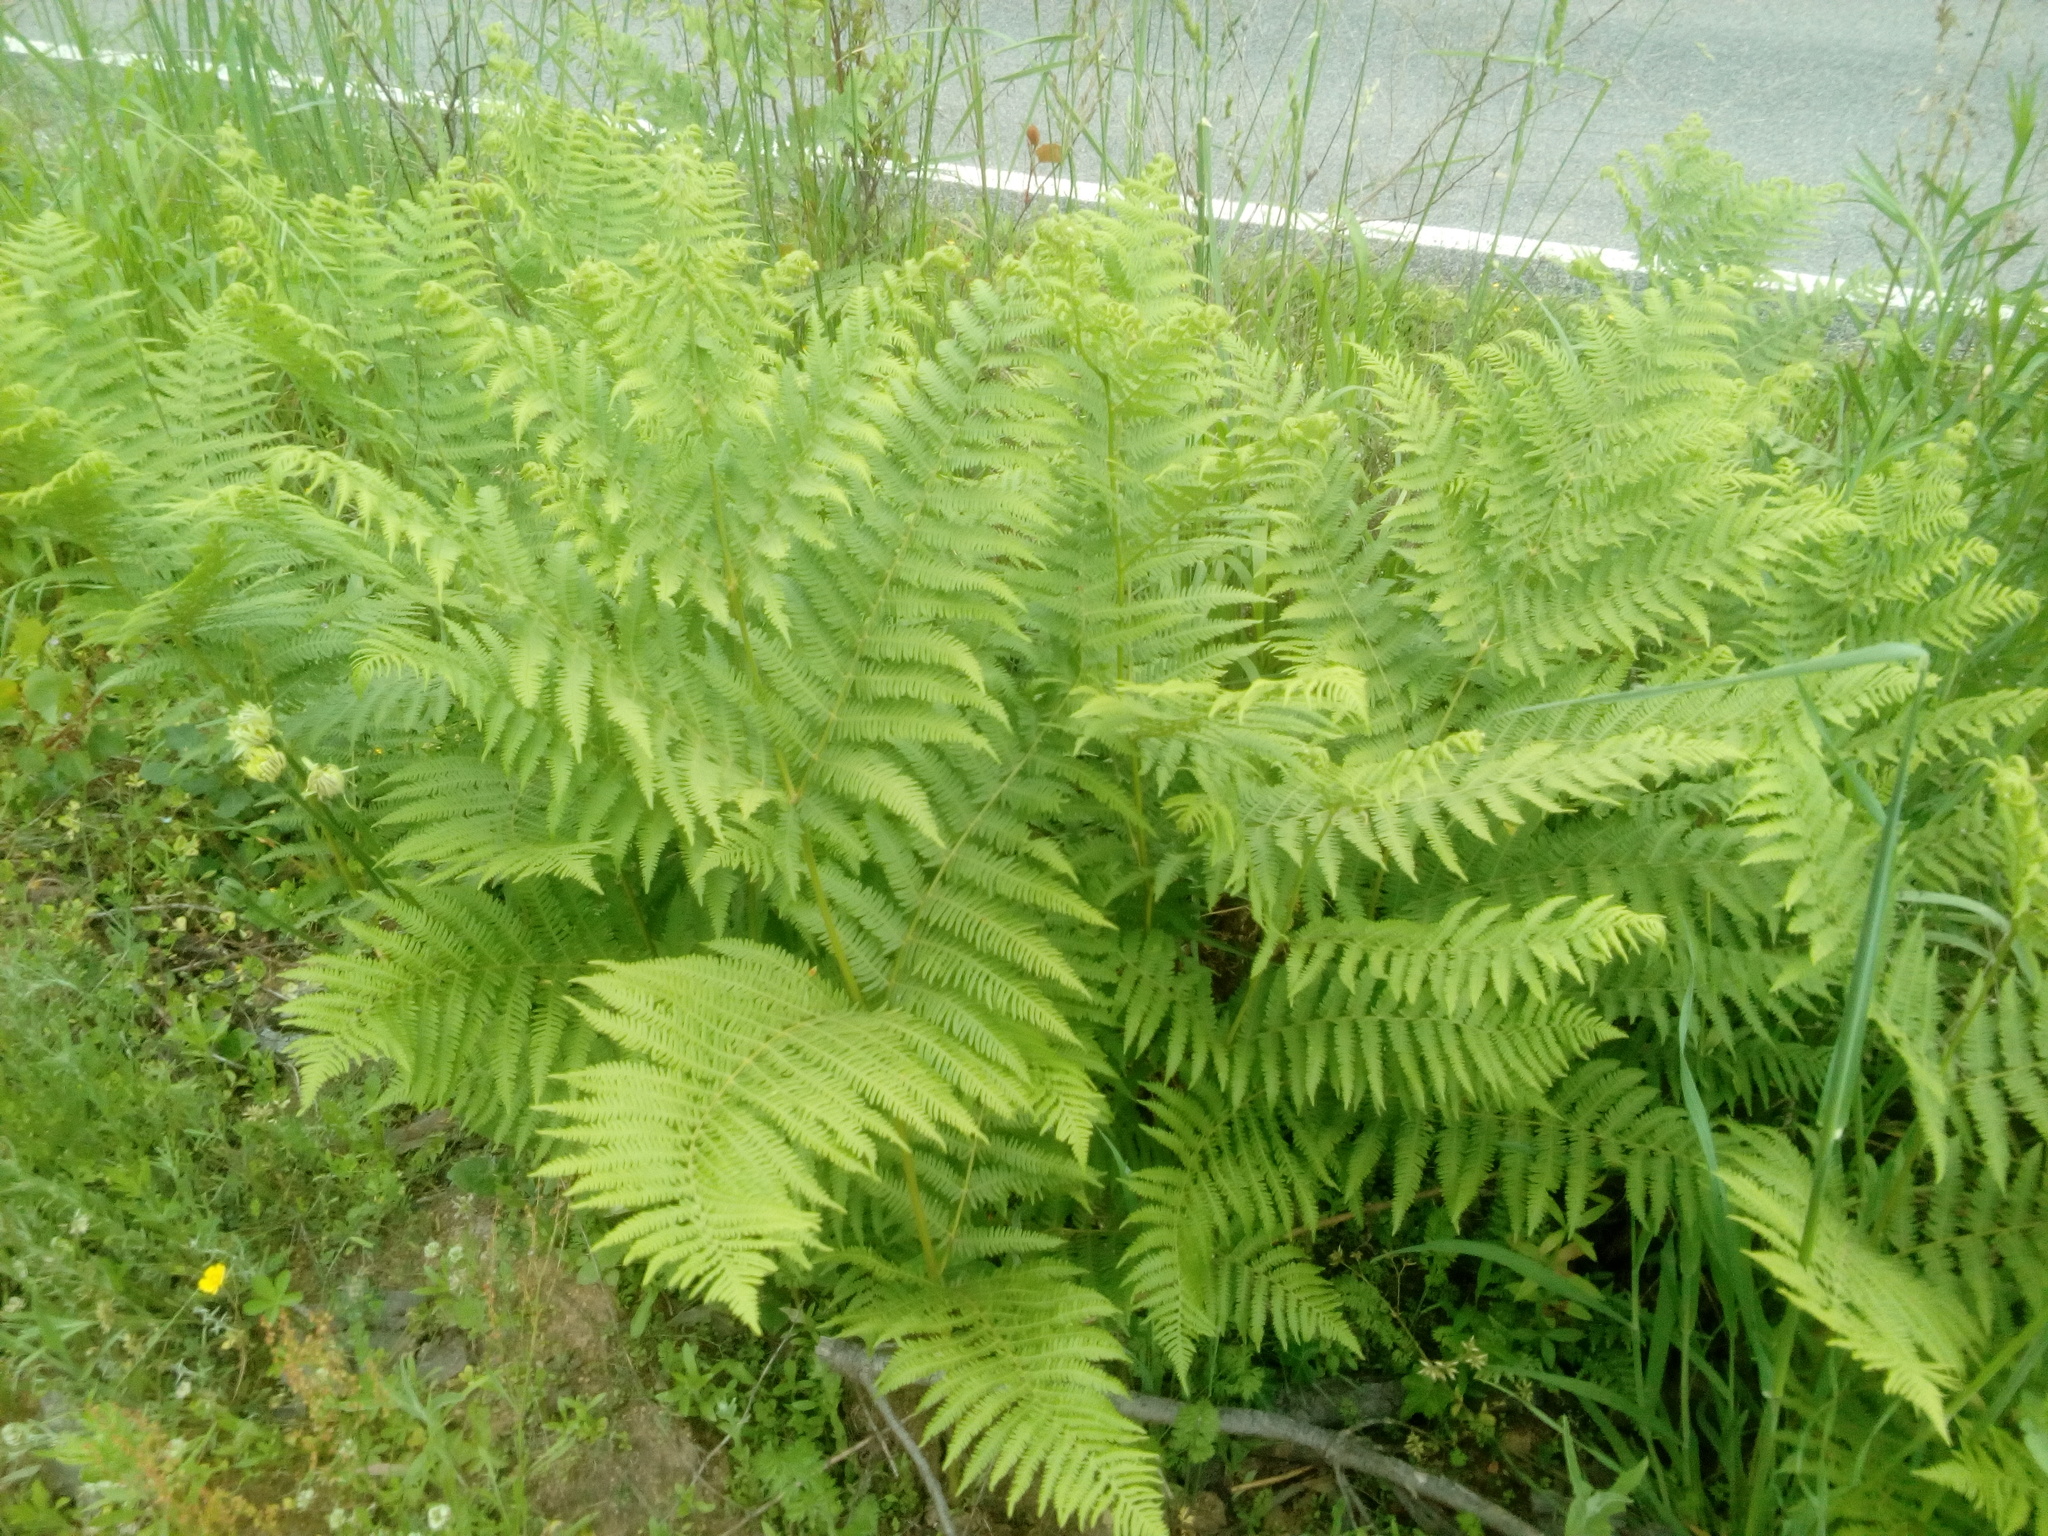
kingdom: Plantae
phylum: Tracheophyta
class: Polypodiopsida
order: Polypodiales
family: Dennstaedtiaceae
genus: Pteridium
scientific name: Pteridium aquilinum
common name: Bracken
